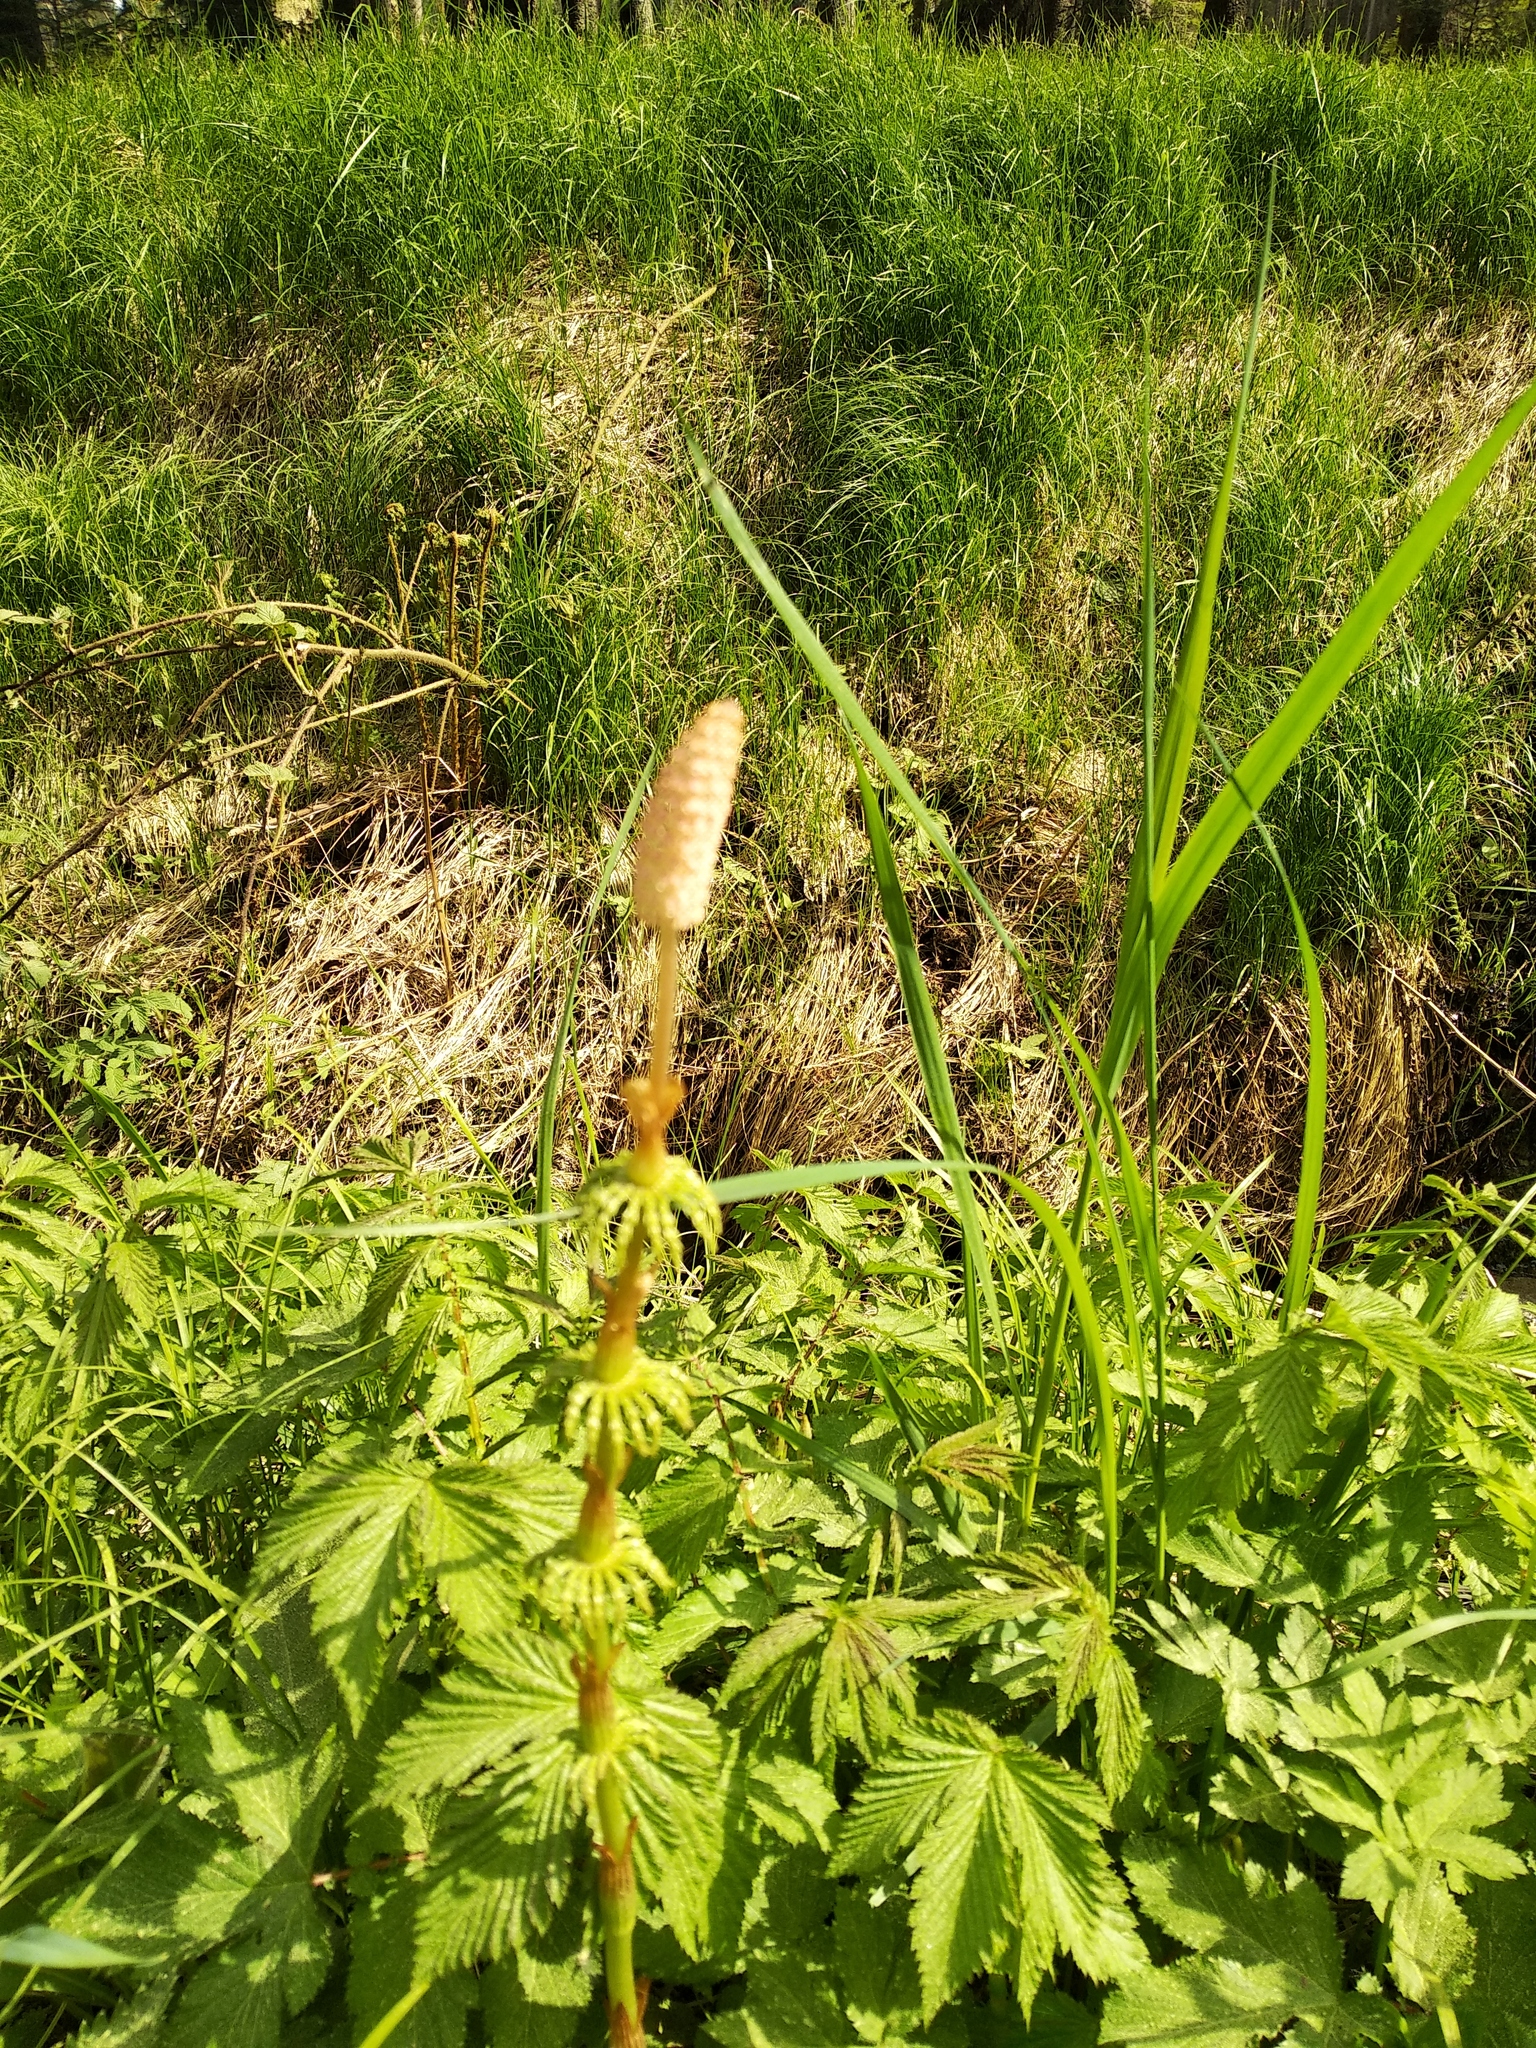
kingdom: Plantae
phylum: Tracheophyta
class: Polypodiopsida
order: Equisetales
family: Equisetaceae
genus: Equisetum
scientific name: Equisetum sylvaticum
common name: Wood horsetail
